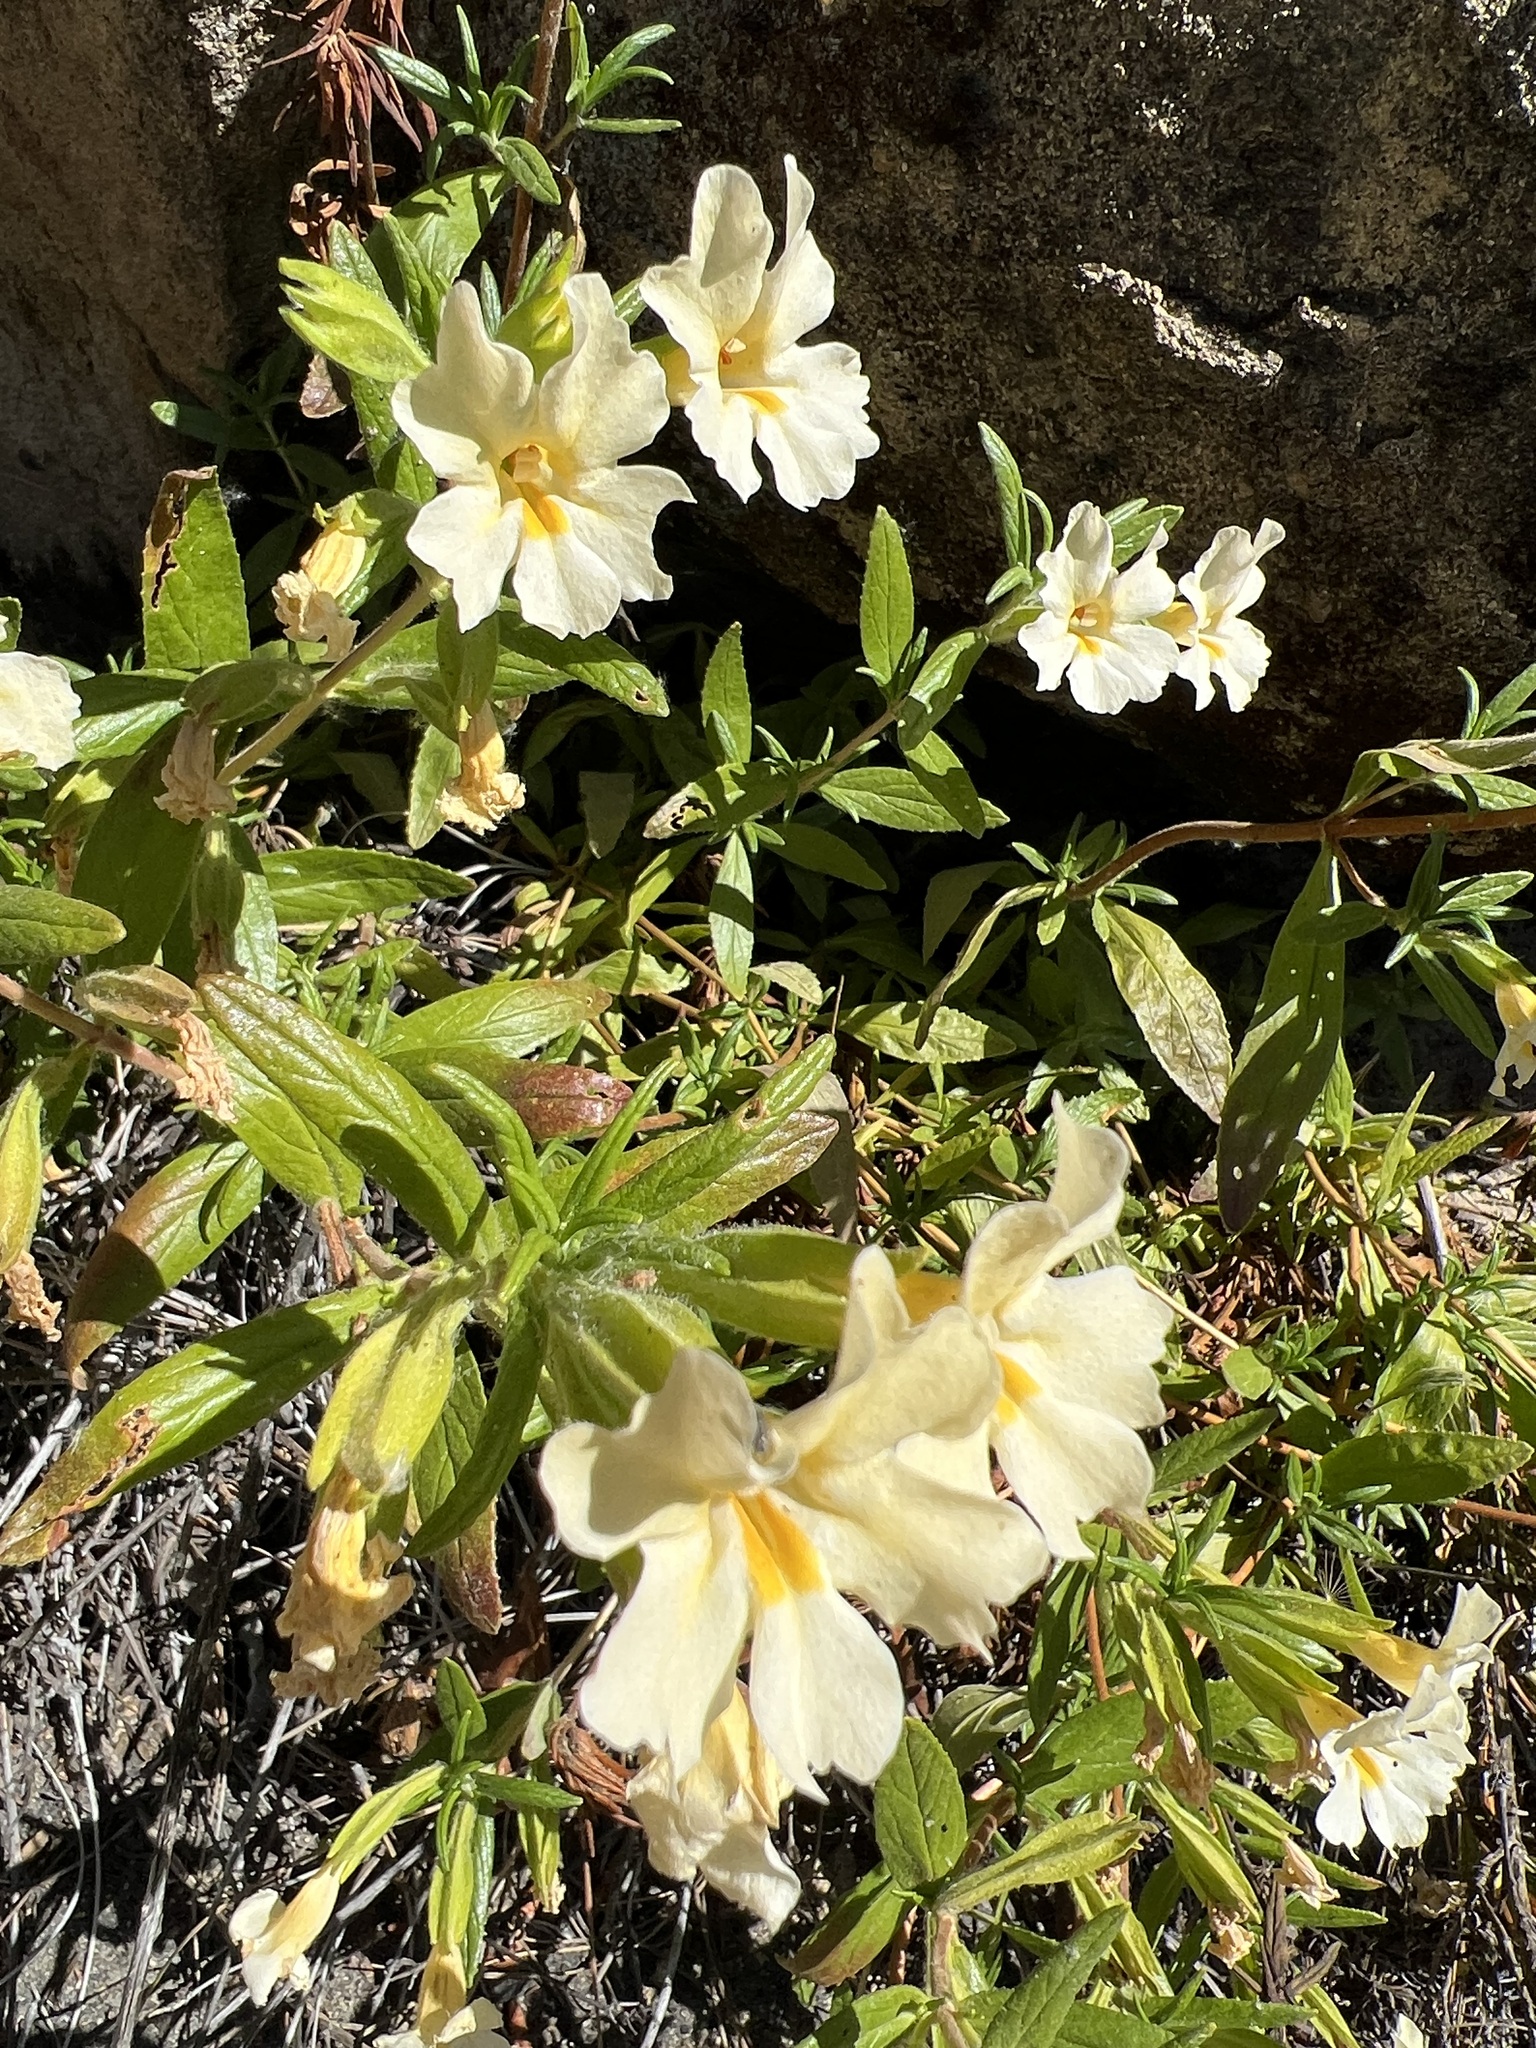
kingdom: Plantae
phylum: Tracheophyta
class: Magnoliopsida
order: Lamiales
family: Phrymaceae
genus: Diplacus
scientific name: Diplacus calycinus
